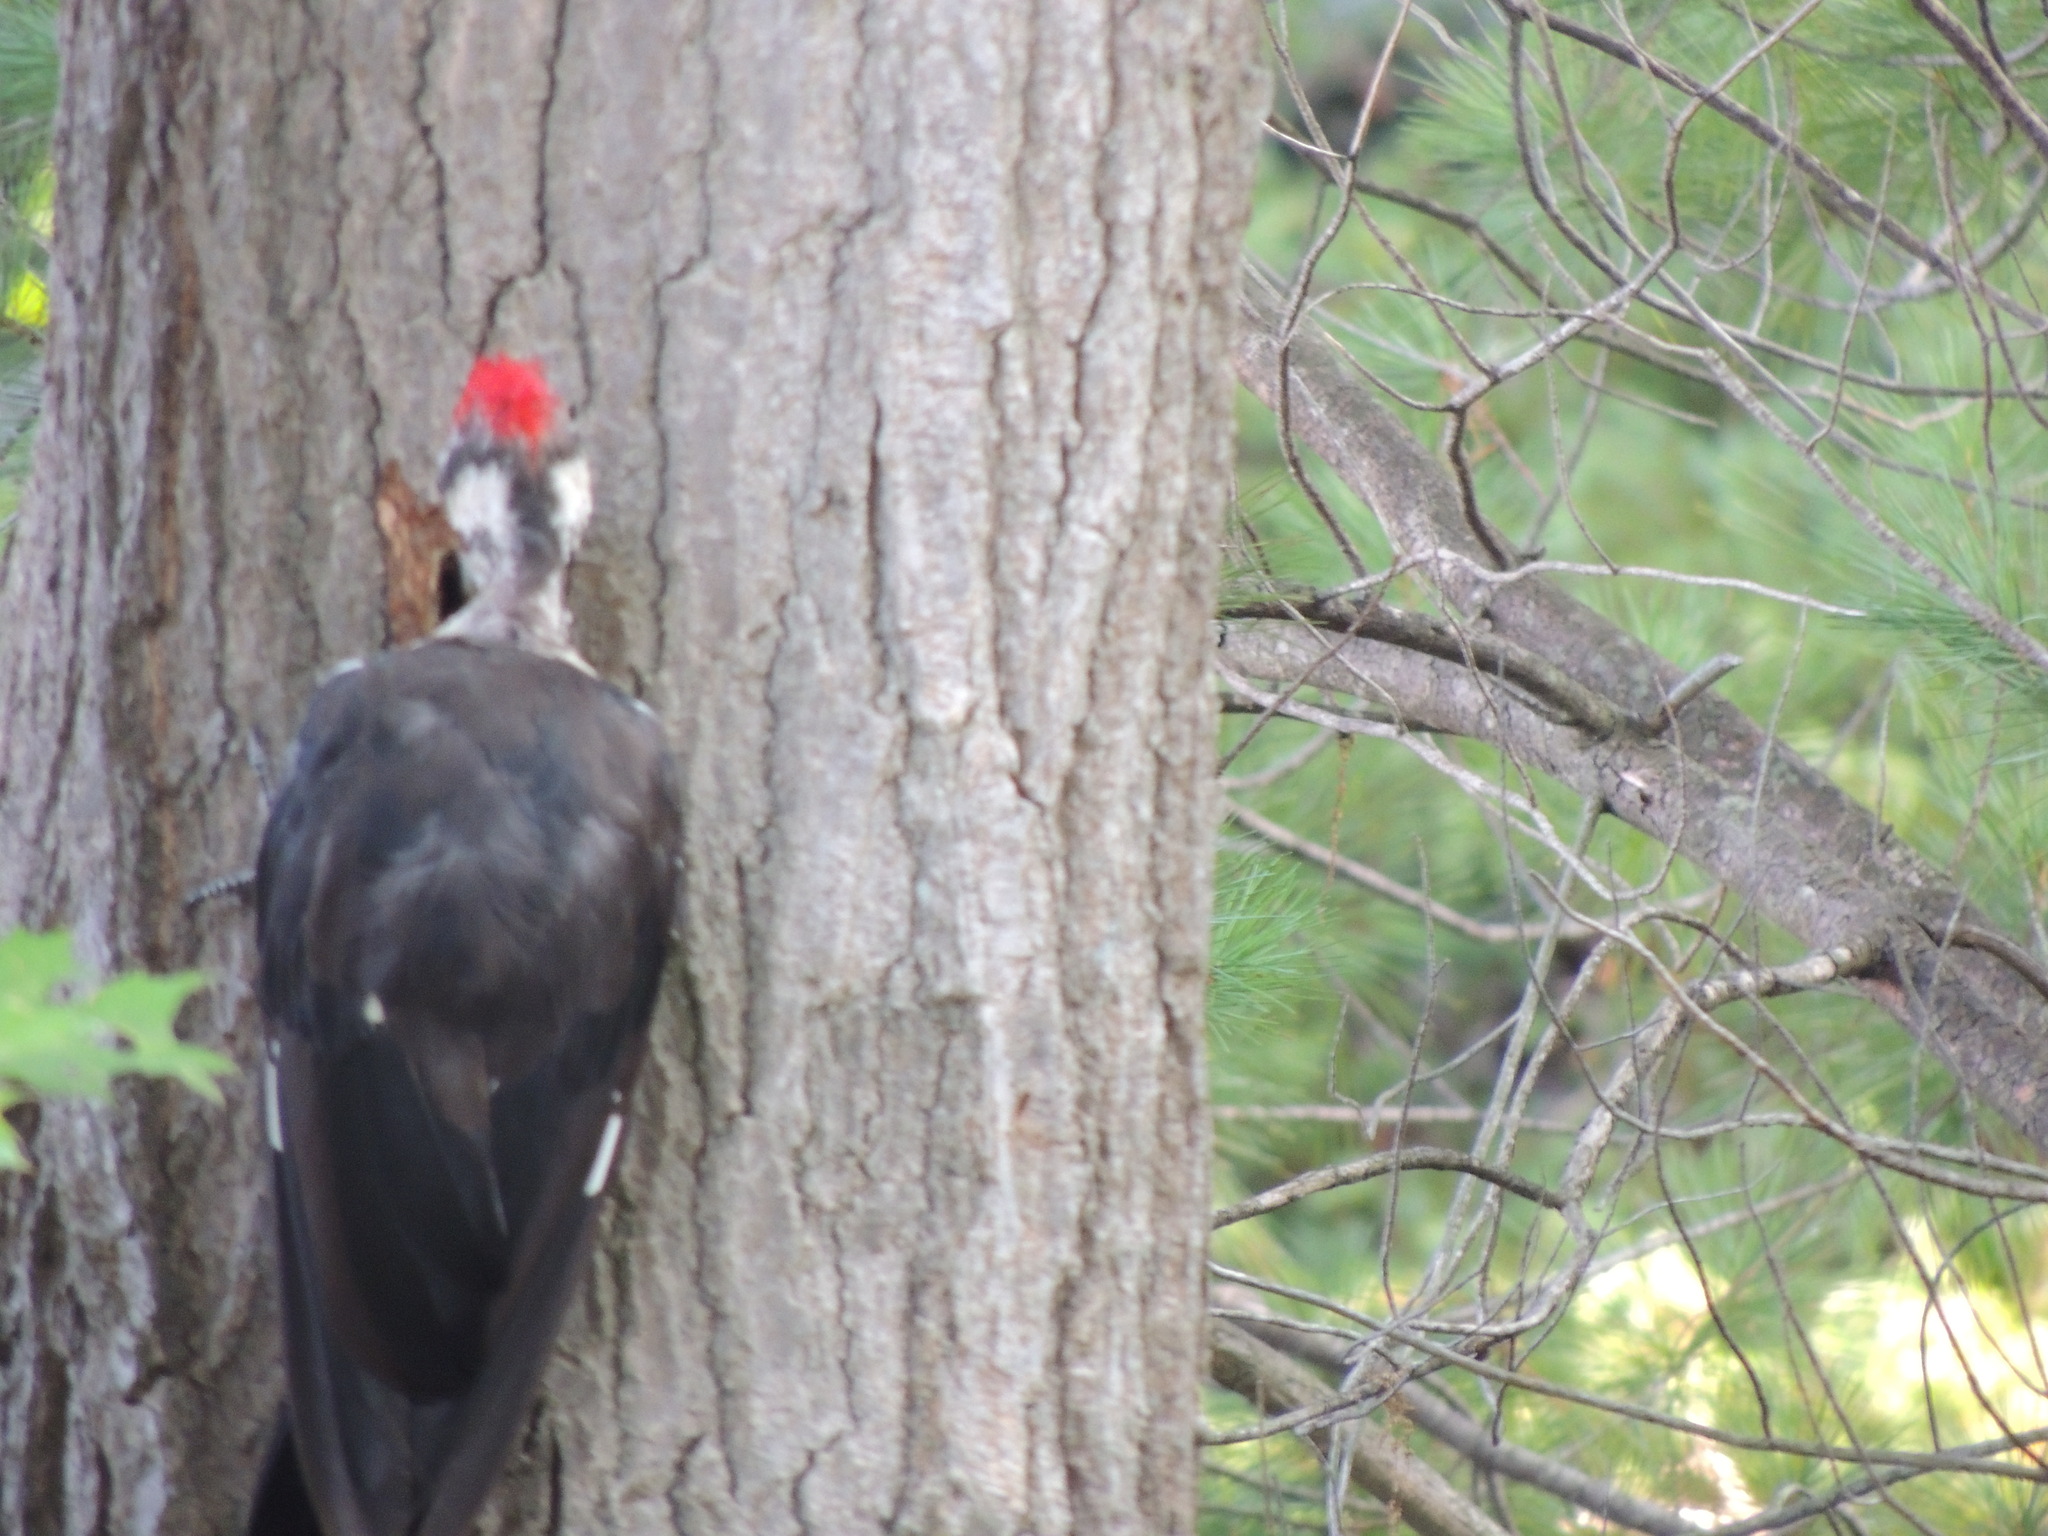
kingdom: Animalia
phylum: Chordata
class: Aves
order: Piciformes
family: Picidae
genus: Dryocopus
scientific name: Dryocopus pileatus
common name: Pileated woodpecker
